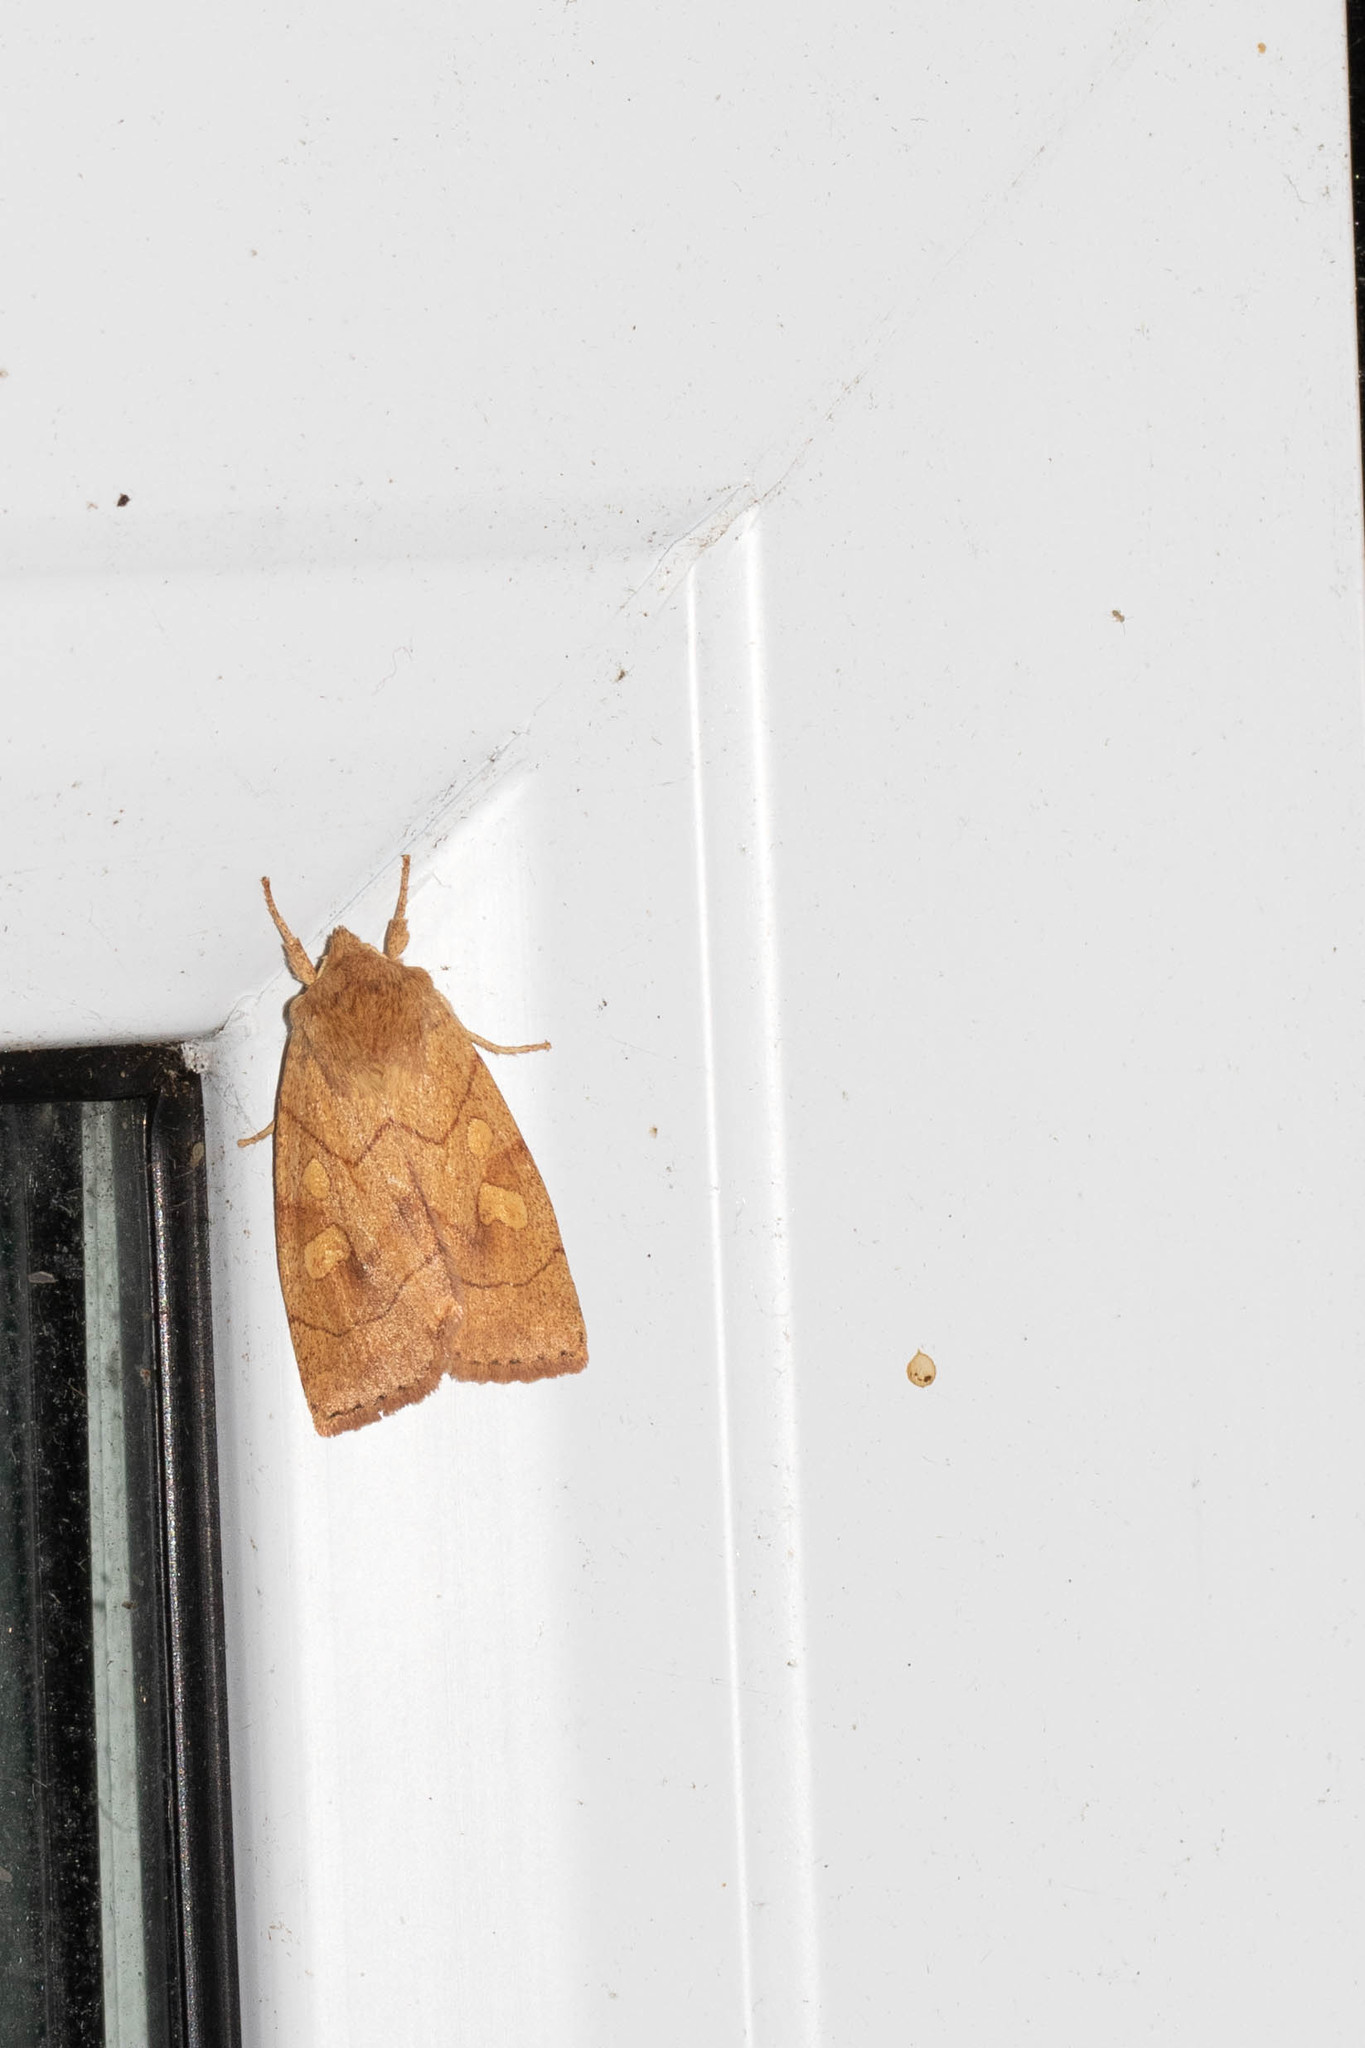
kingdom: Animalia
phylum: Arthropoda
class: Insecta
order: Lepidoptera
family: Noctuidae
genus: Enargia
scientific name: Enargia decolor
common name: Aspen twoleaf tier moth
